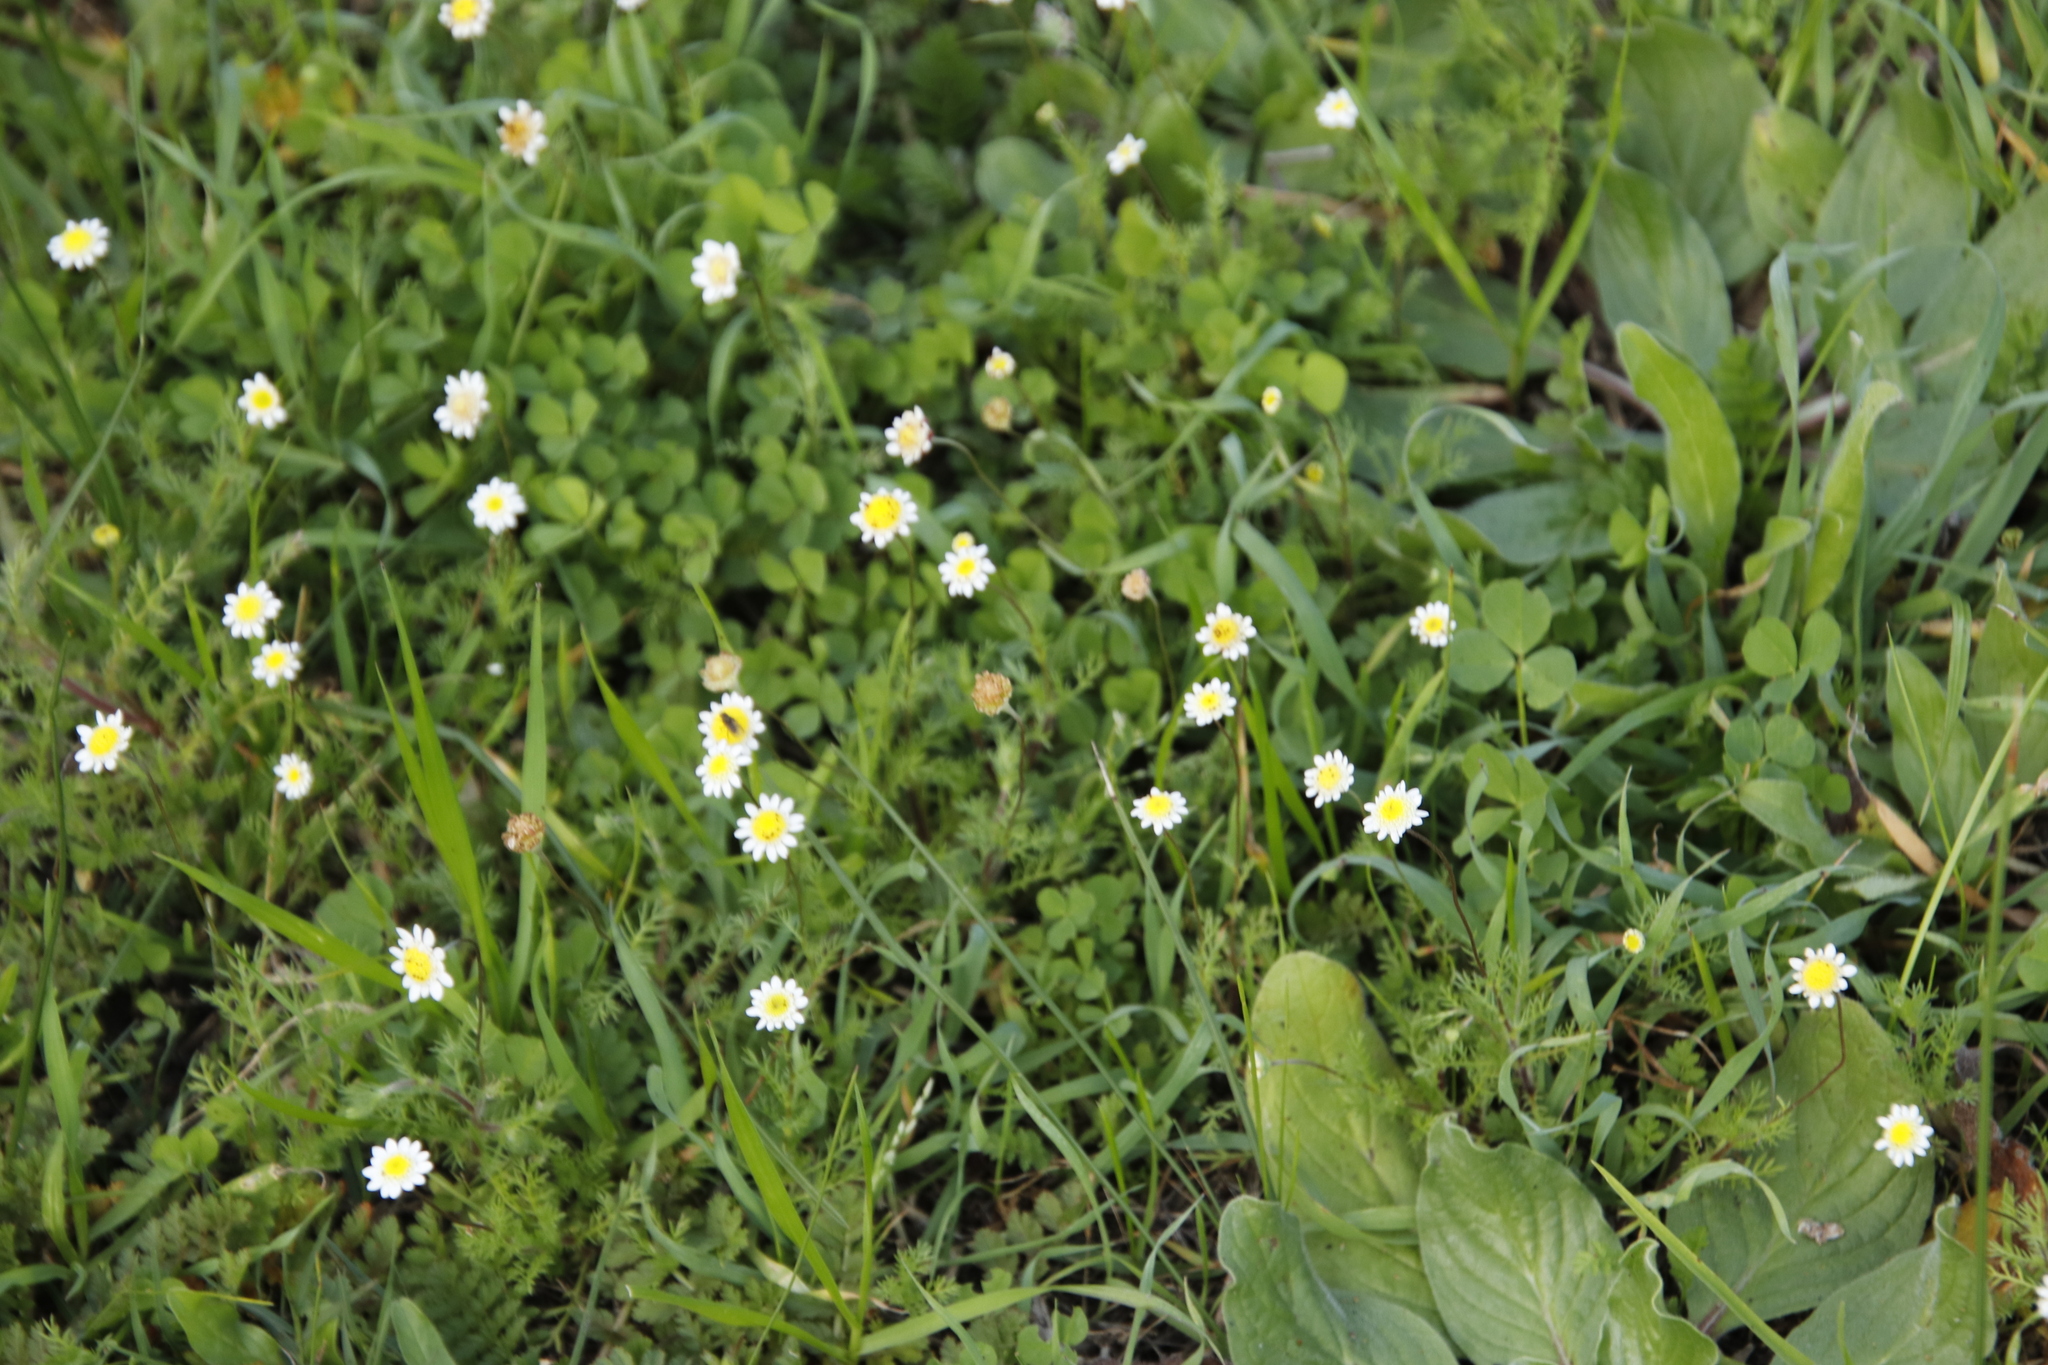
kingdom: Plantae
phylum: Tracheophyta
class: Magnoliopsida
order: Asterales
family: Asteraceae
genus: Cotula
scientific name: Cotula turbinata
